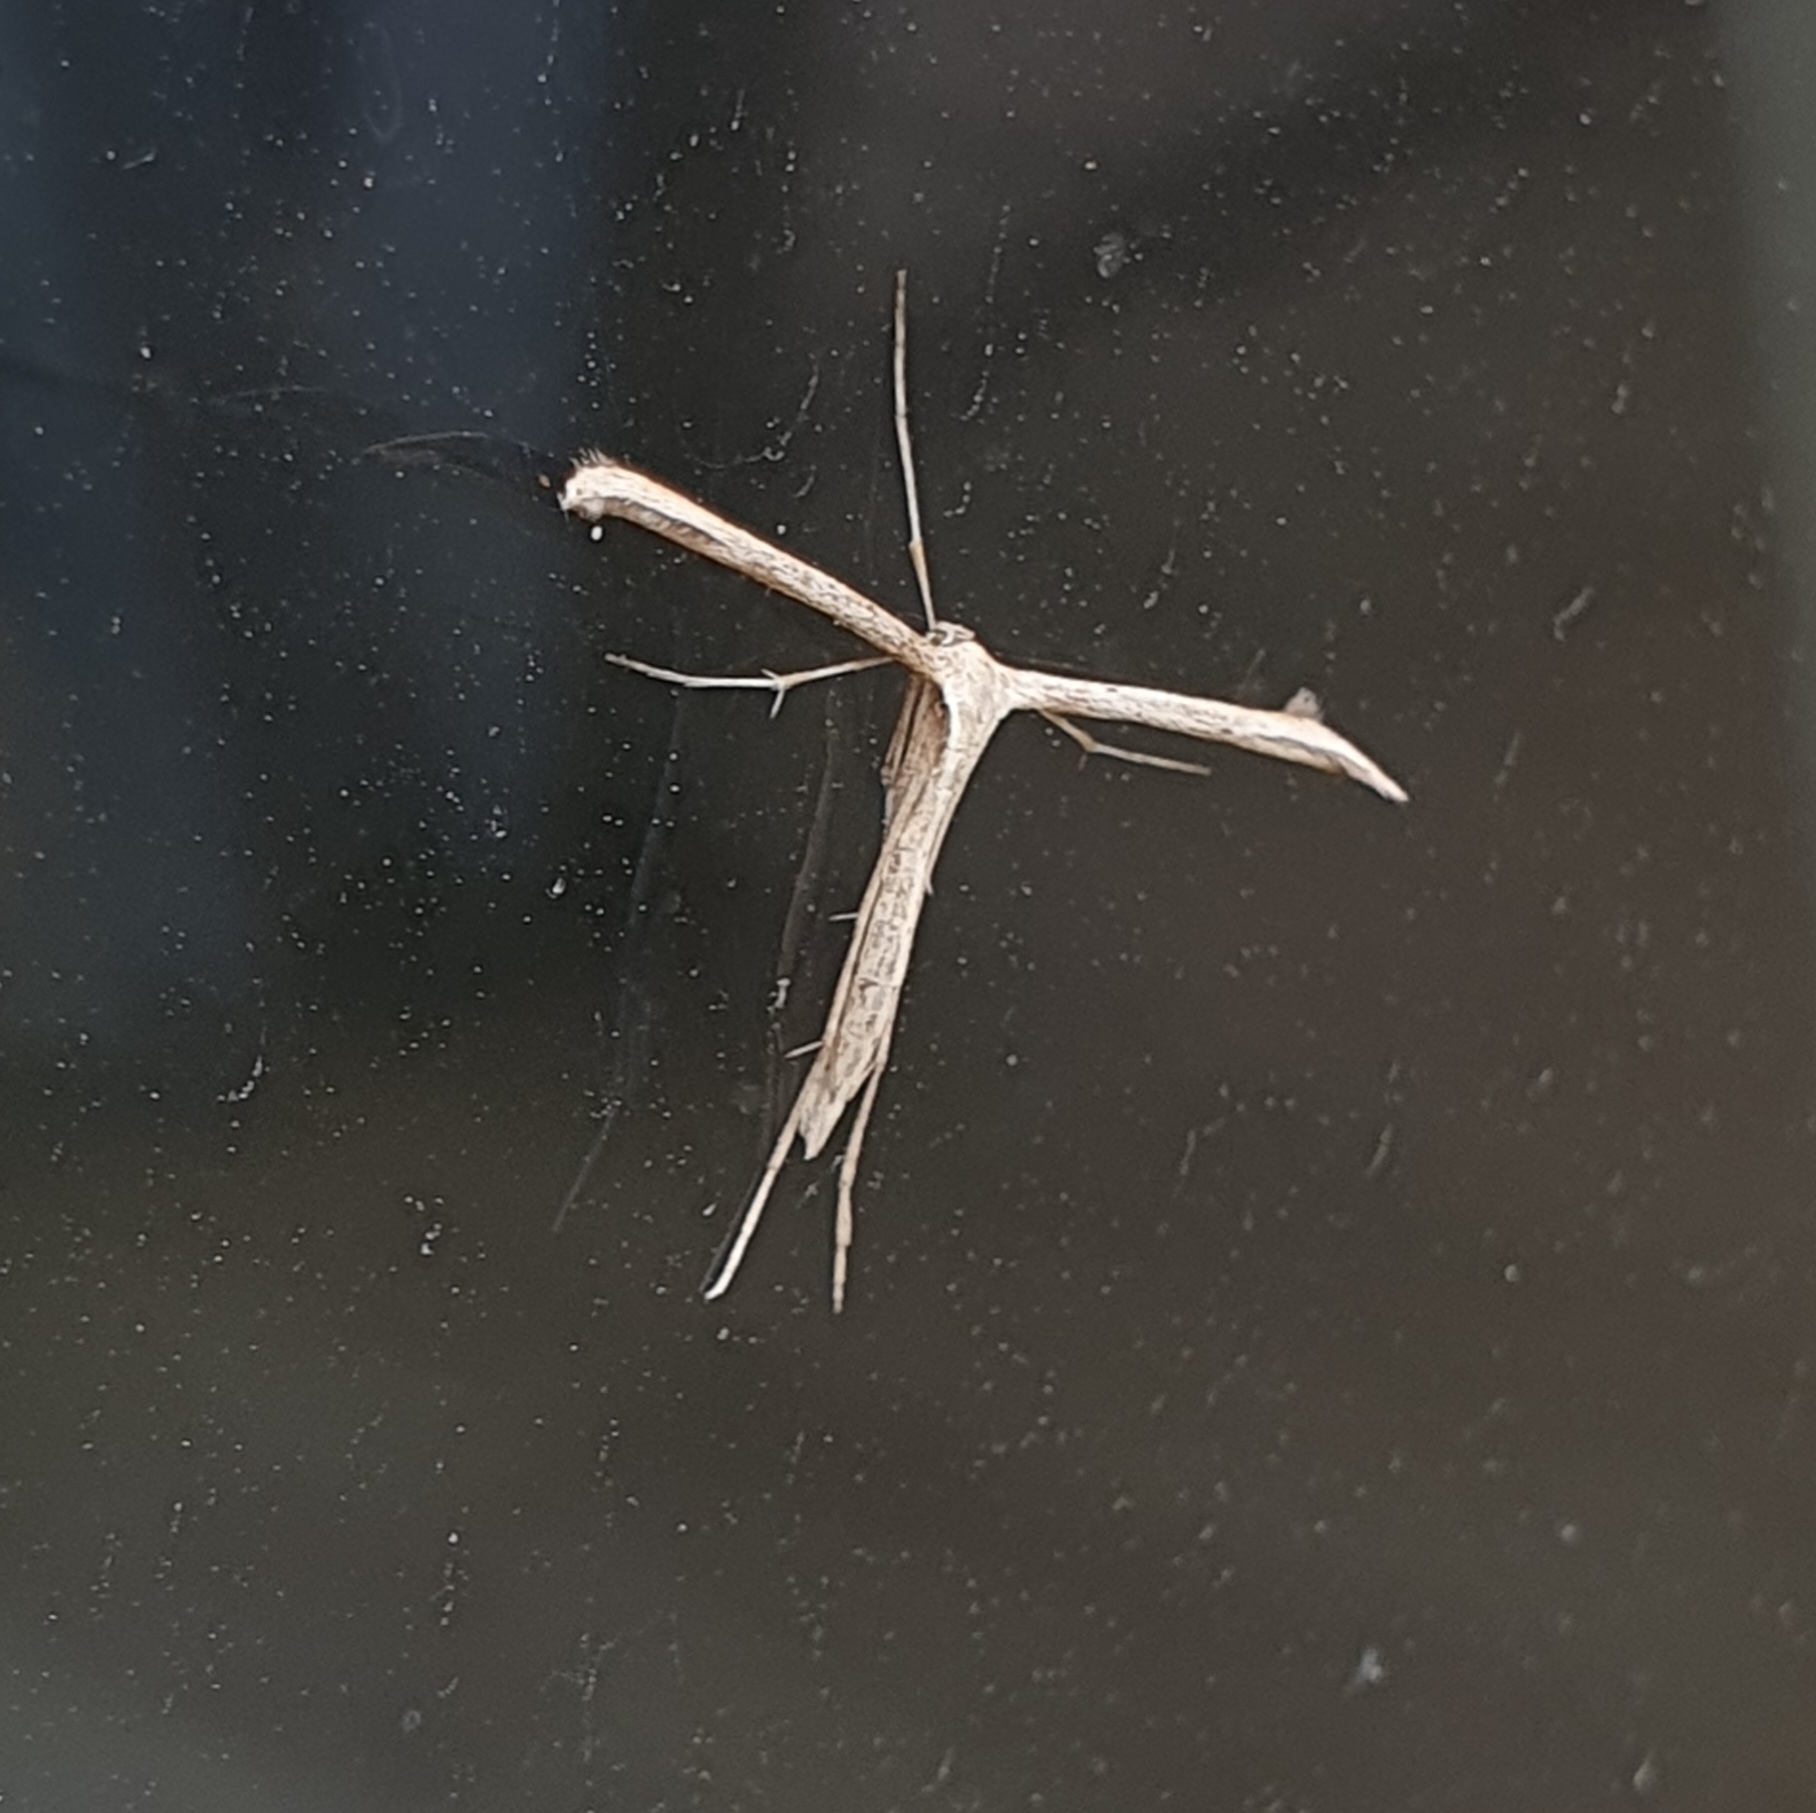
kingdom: Animalia
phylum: Arthropoda
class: Insecta
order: Lepidoptera
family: Pterophoridae
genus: Emmelina
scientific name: Emmelina monodactyla
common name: Common plume
